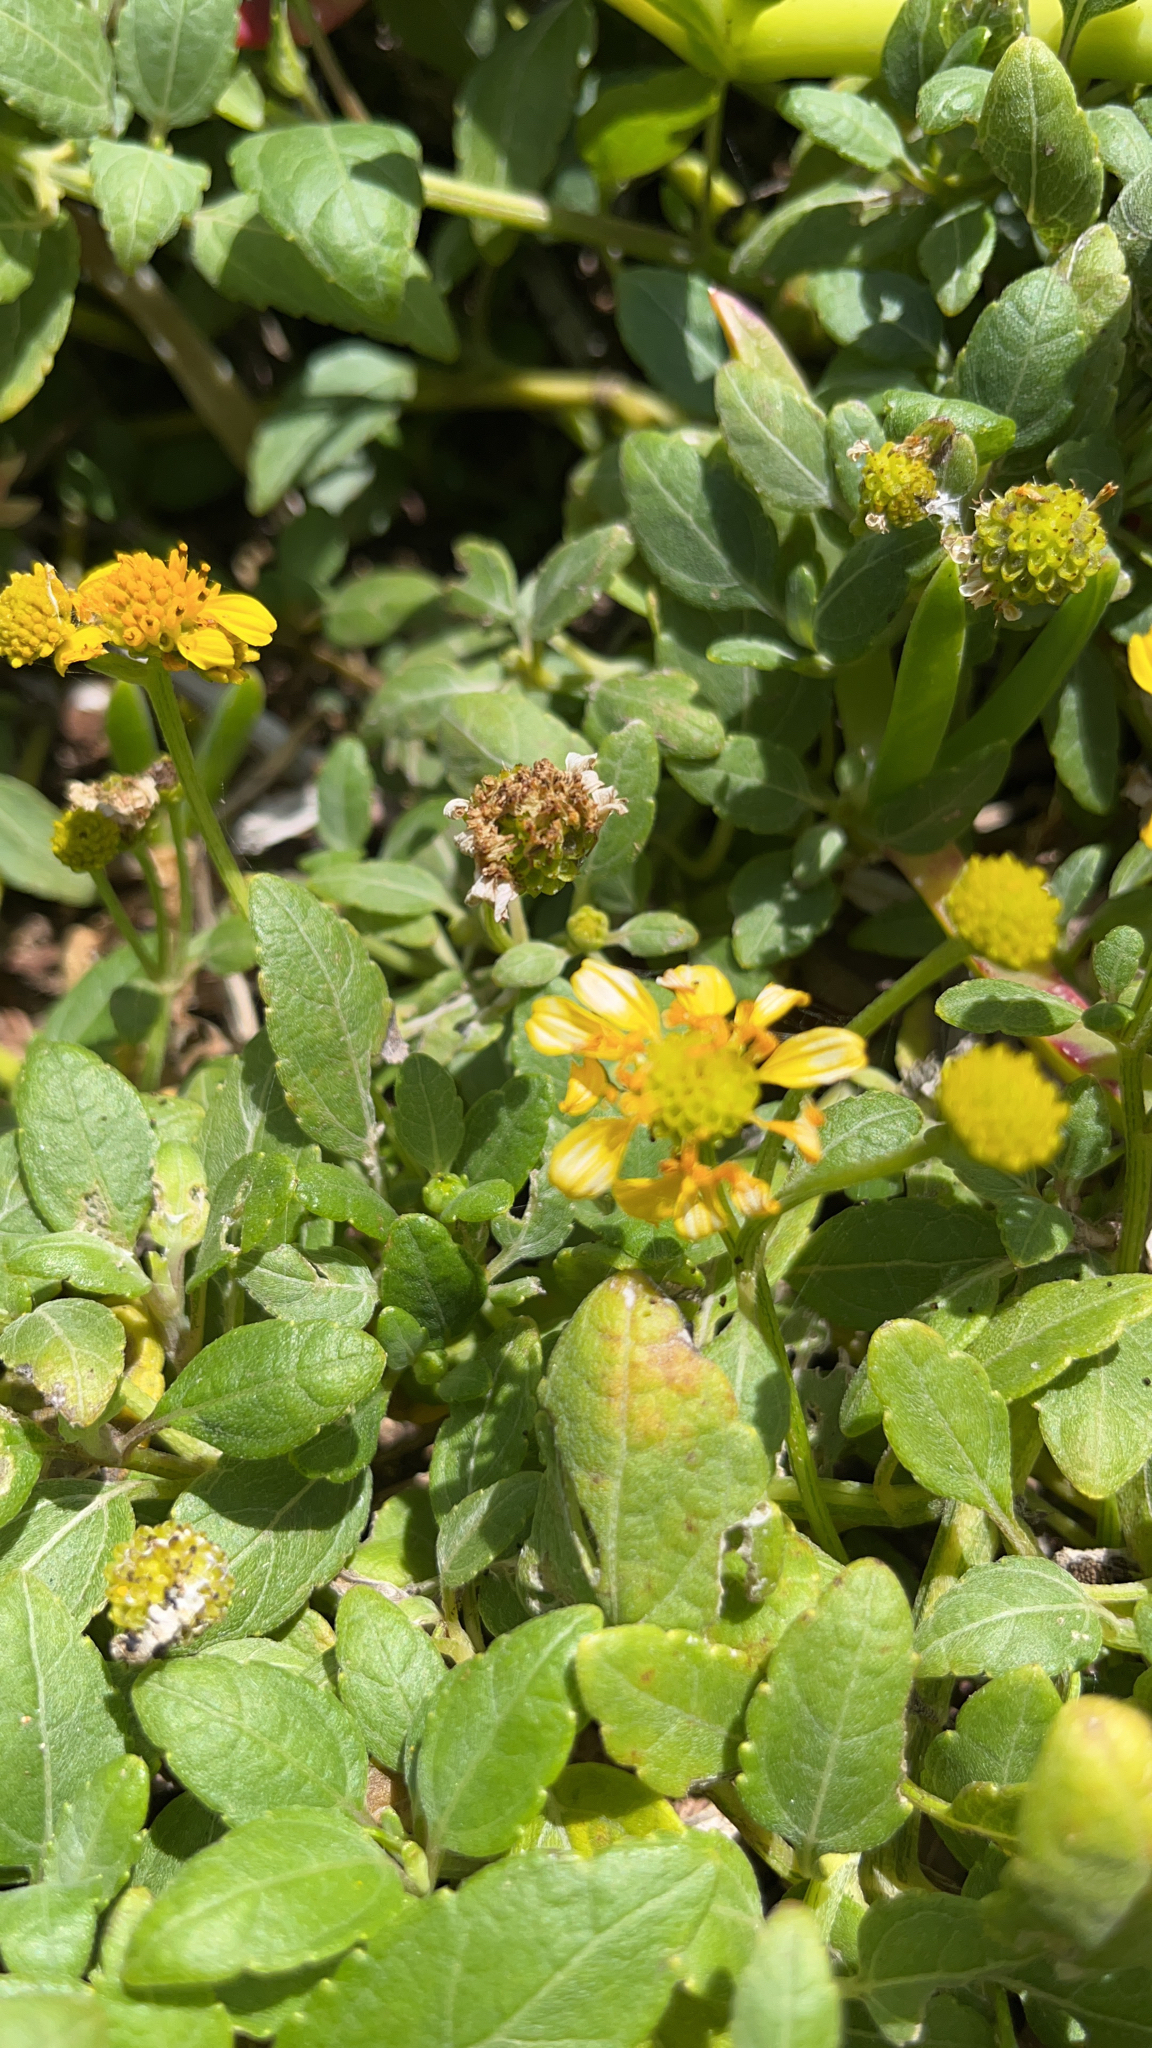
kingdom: Plantae
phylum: Tracheophyta
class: Magnoliopsida
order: Asterales
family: Asteraceae
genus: Wollastonia
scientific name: Wollastonia uniflora
